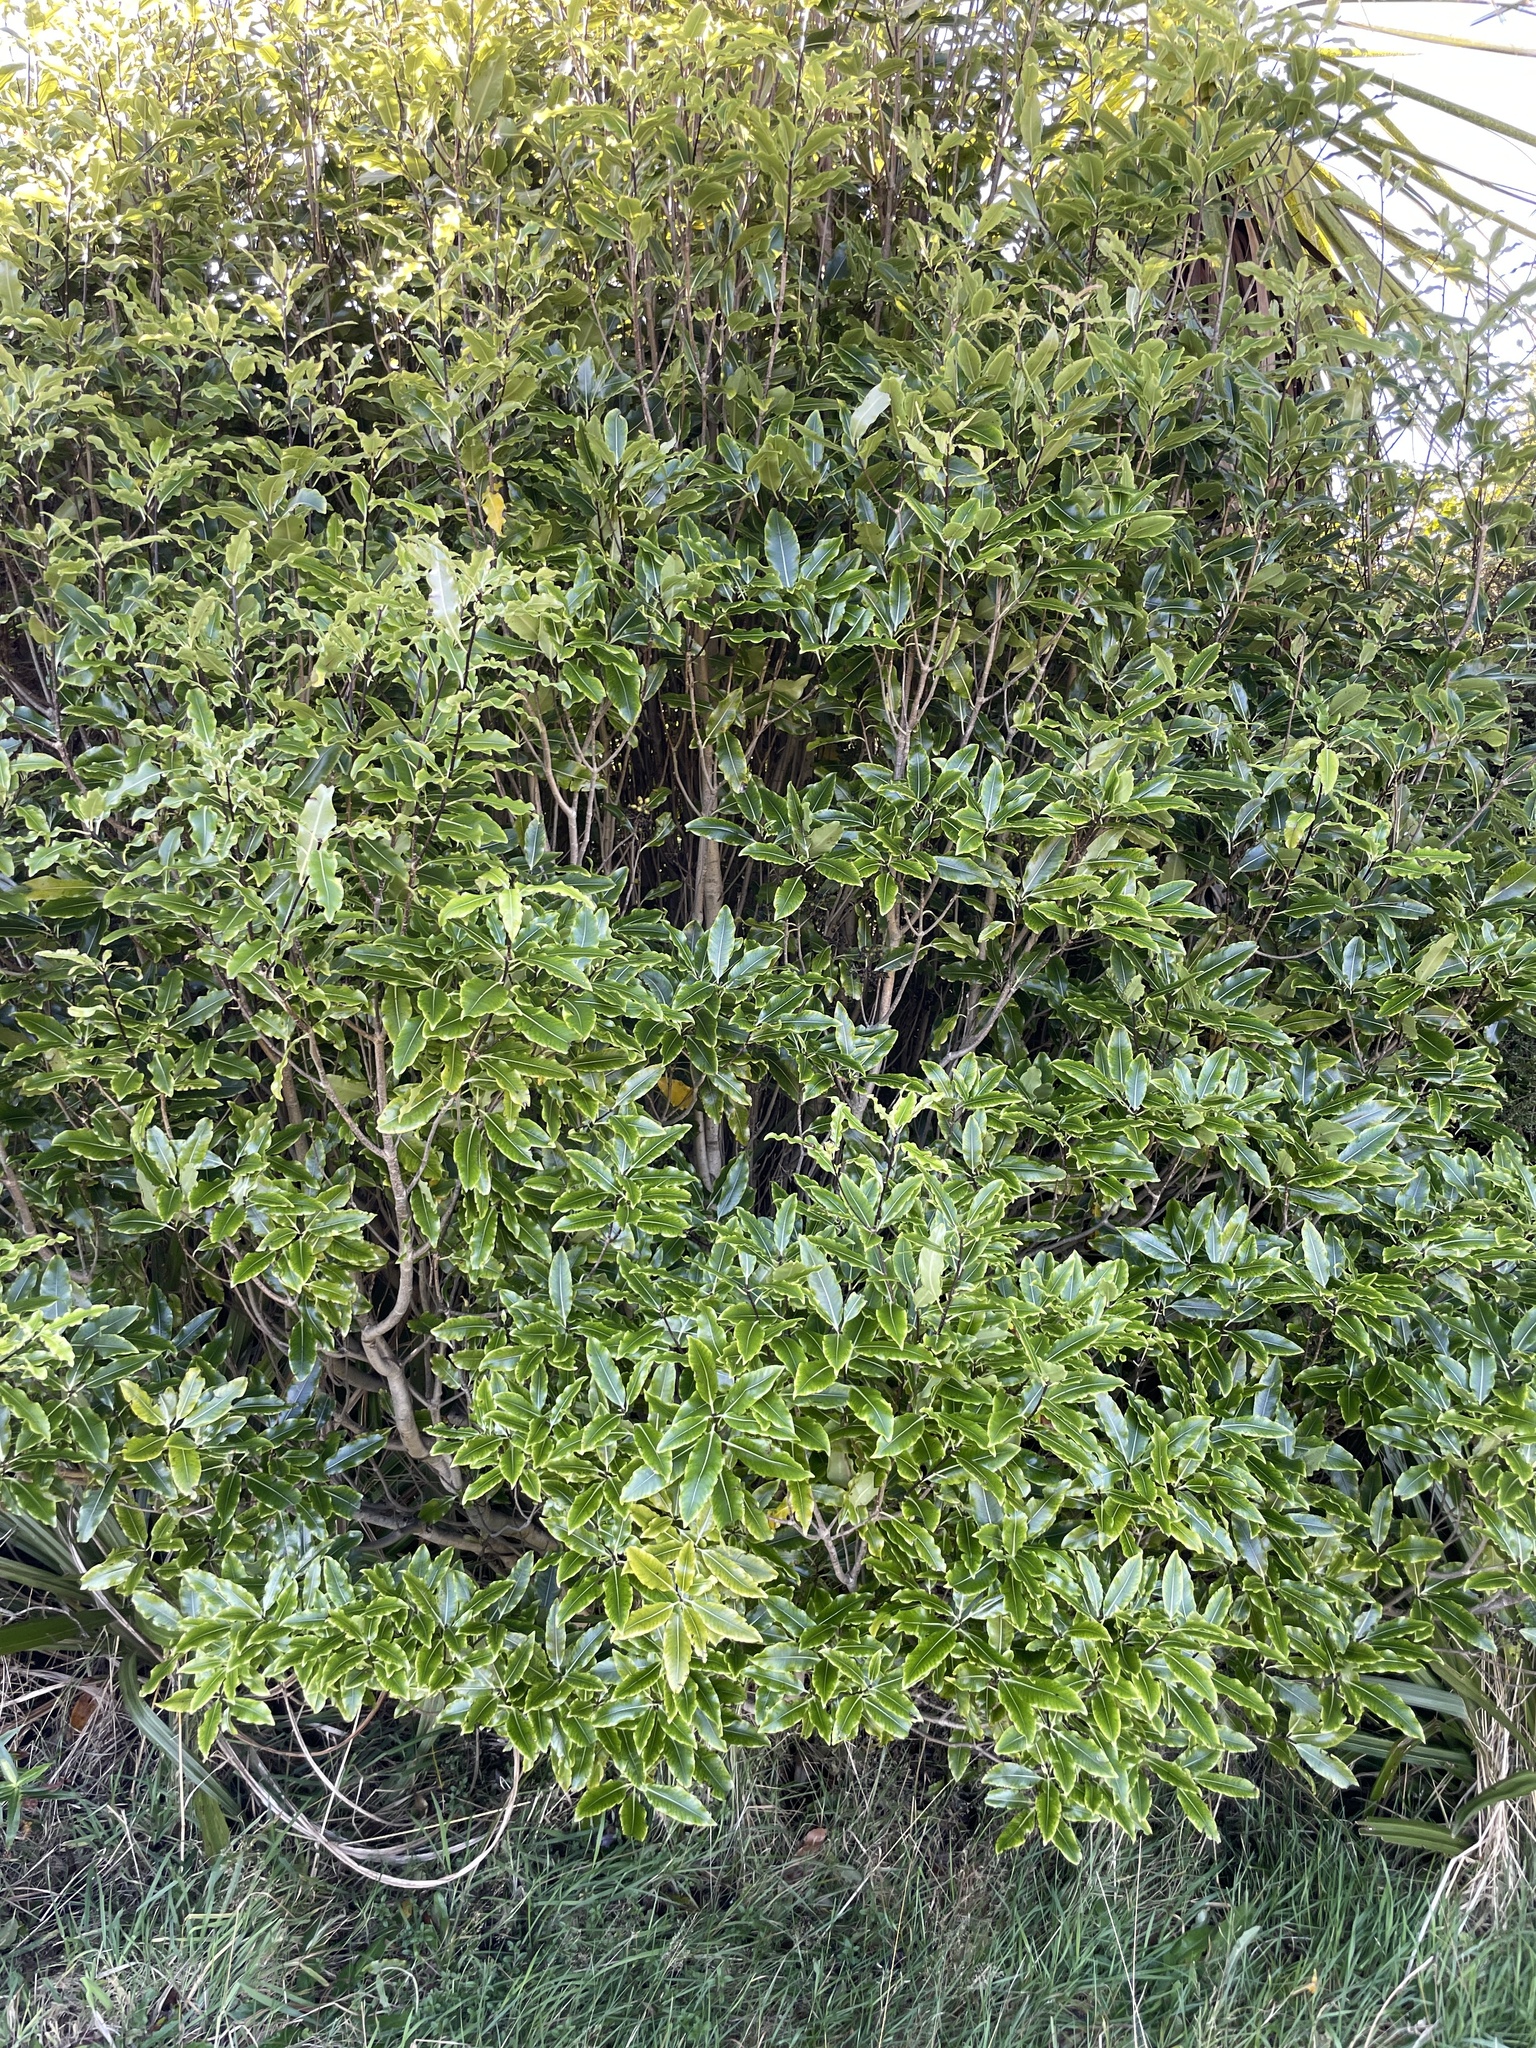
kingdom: Plantae
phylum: Tracheophyta
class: Magnoliopsida
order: Apiales
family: Pittosporaceae
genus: Pittosporum
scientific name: Pittosporum eugenioides
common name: Lemonwood
